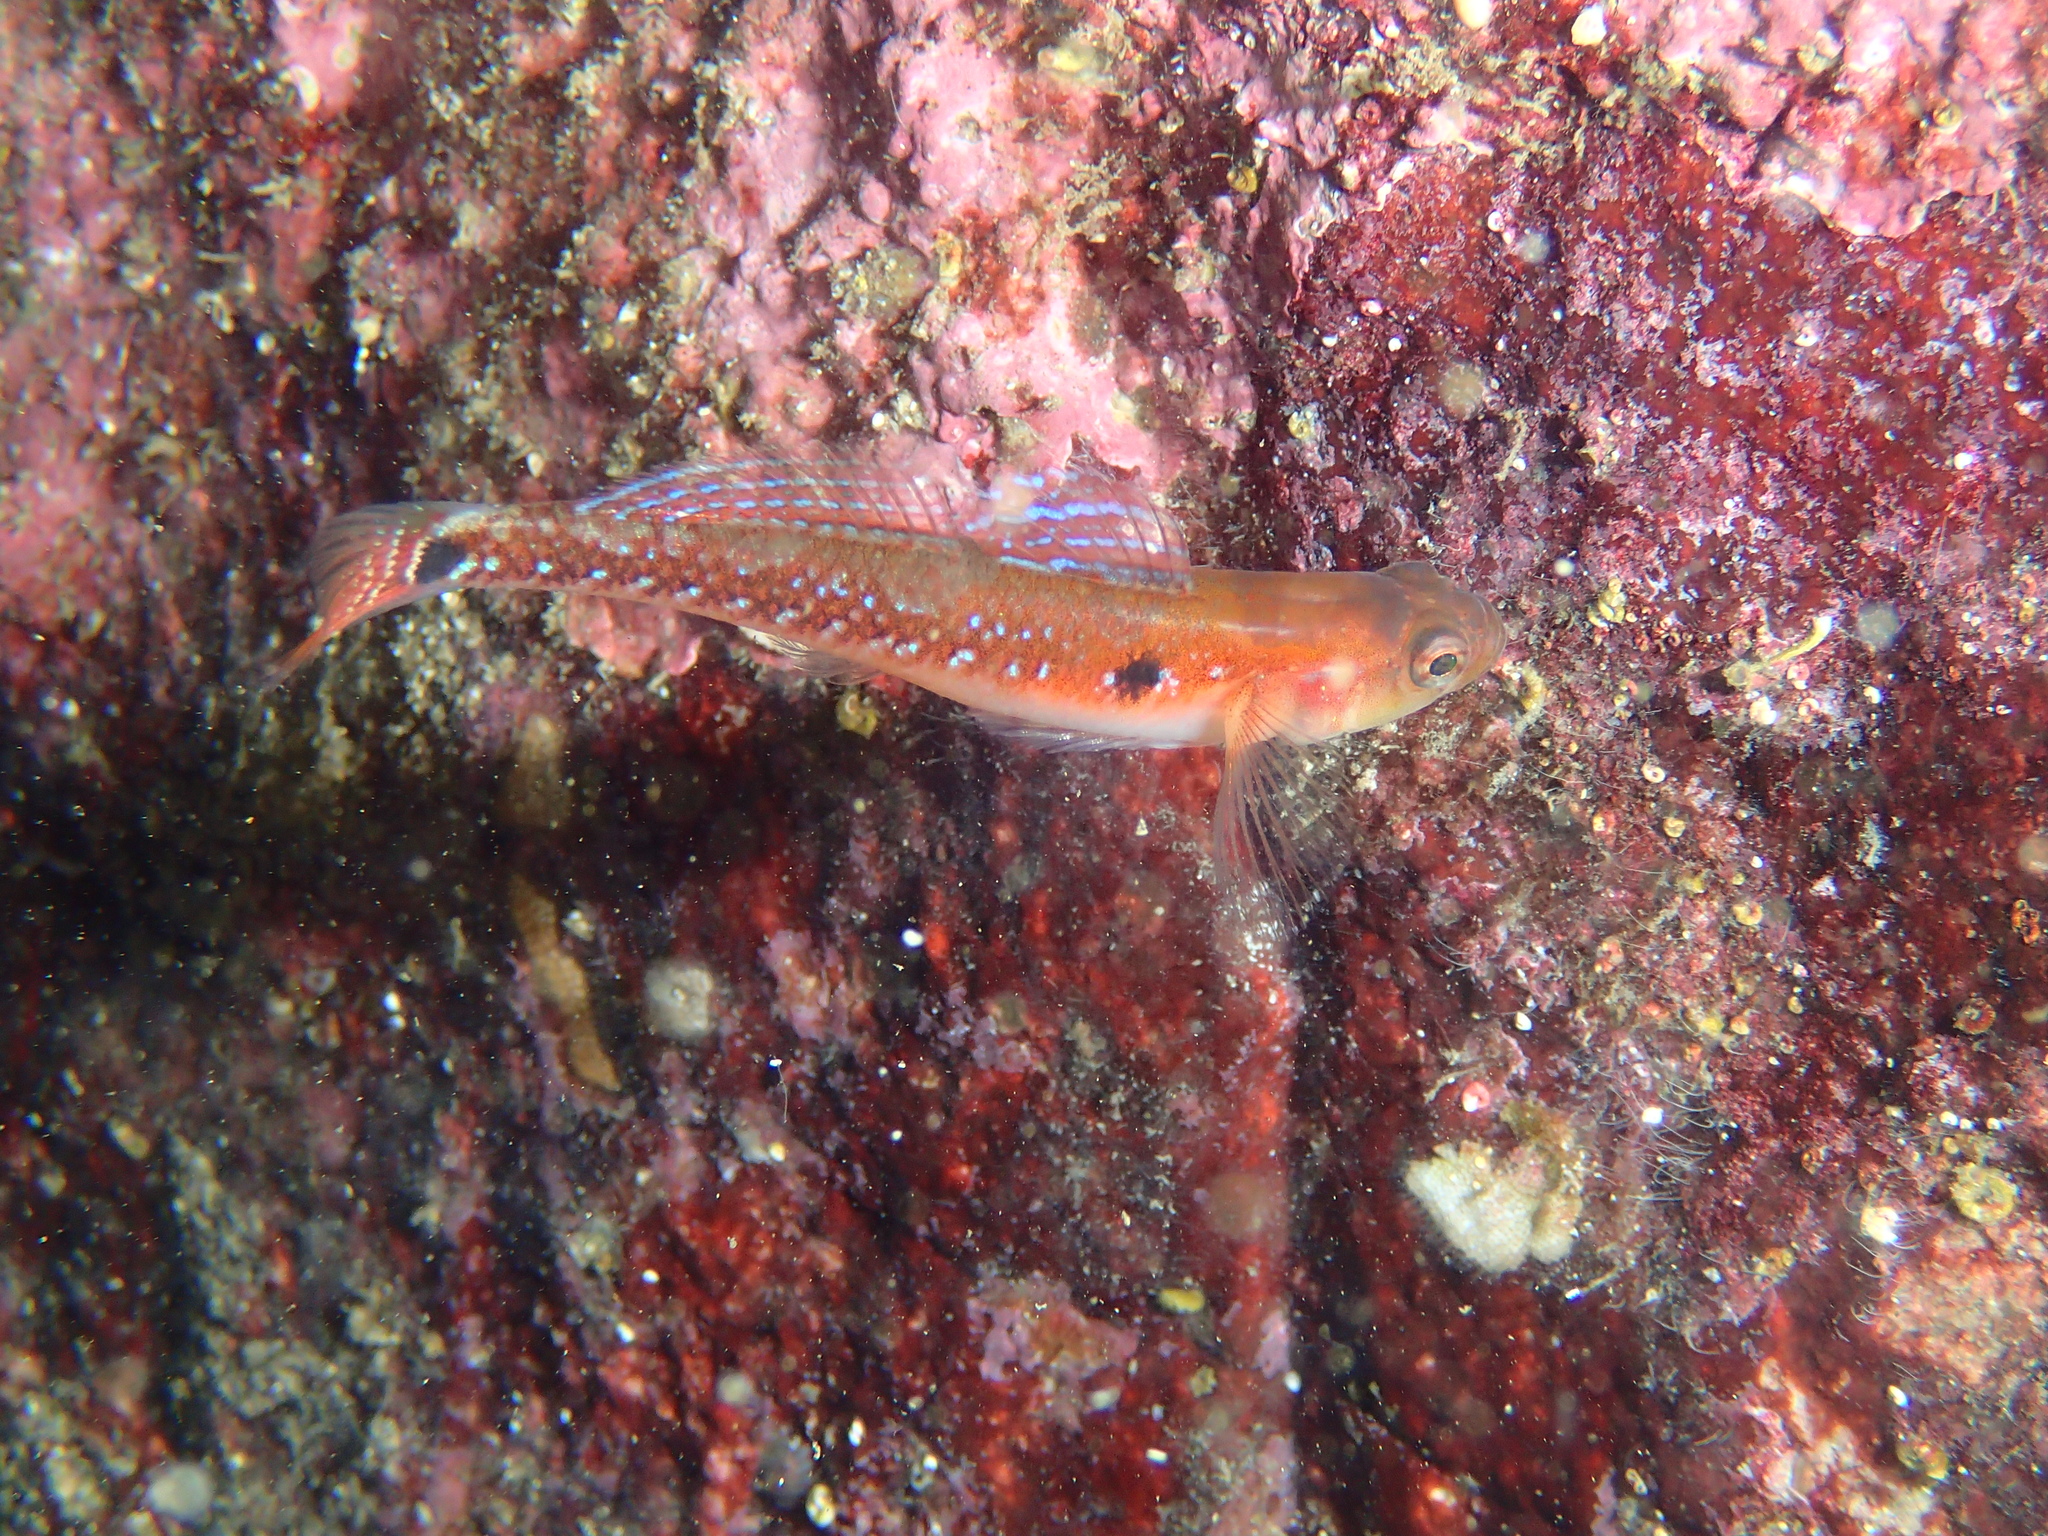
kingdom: Animalia
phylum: Chordata
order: Perciformes
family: Gobiidae
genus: Gobiusculus
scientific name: Gobiusculus flavescens
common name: Two-spotted goby
